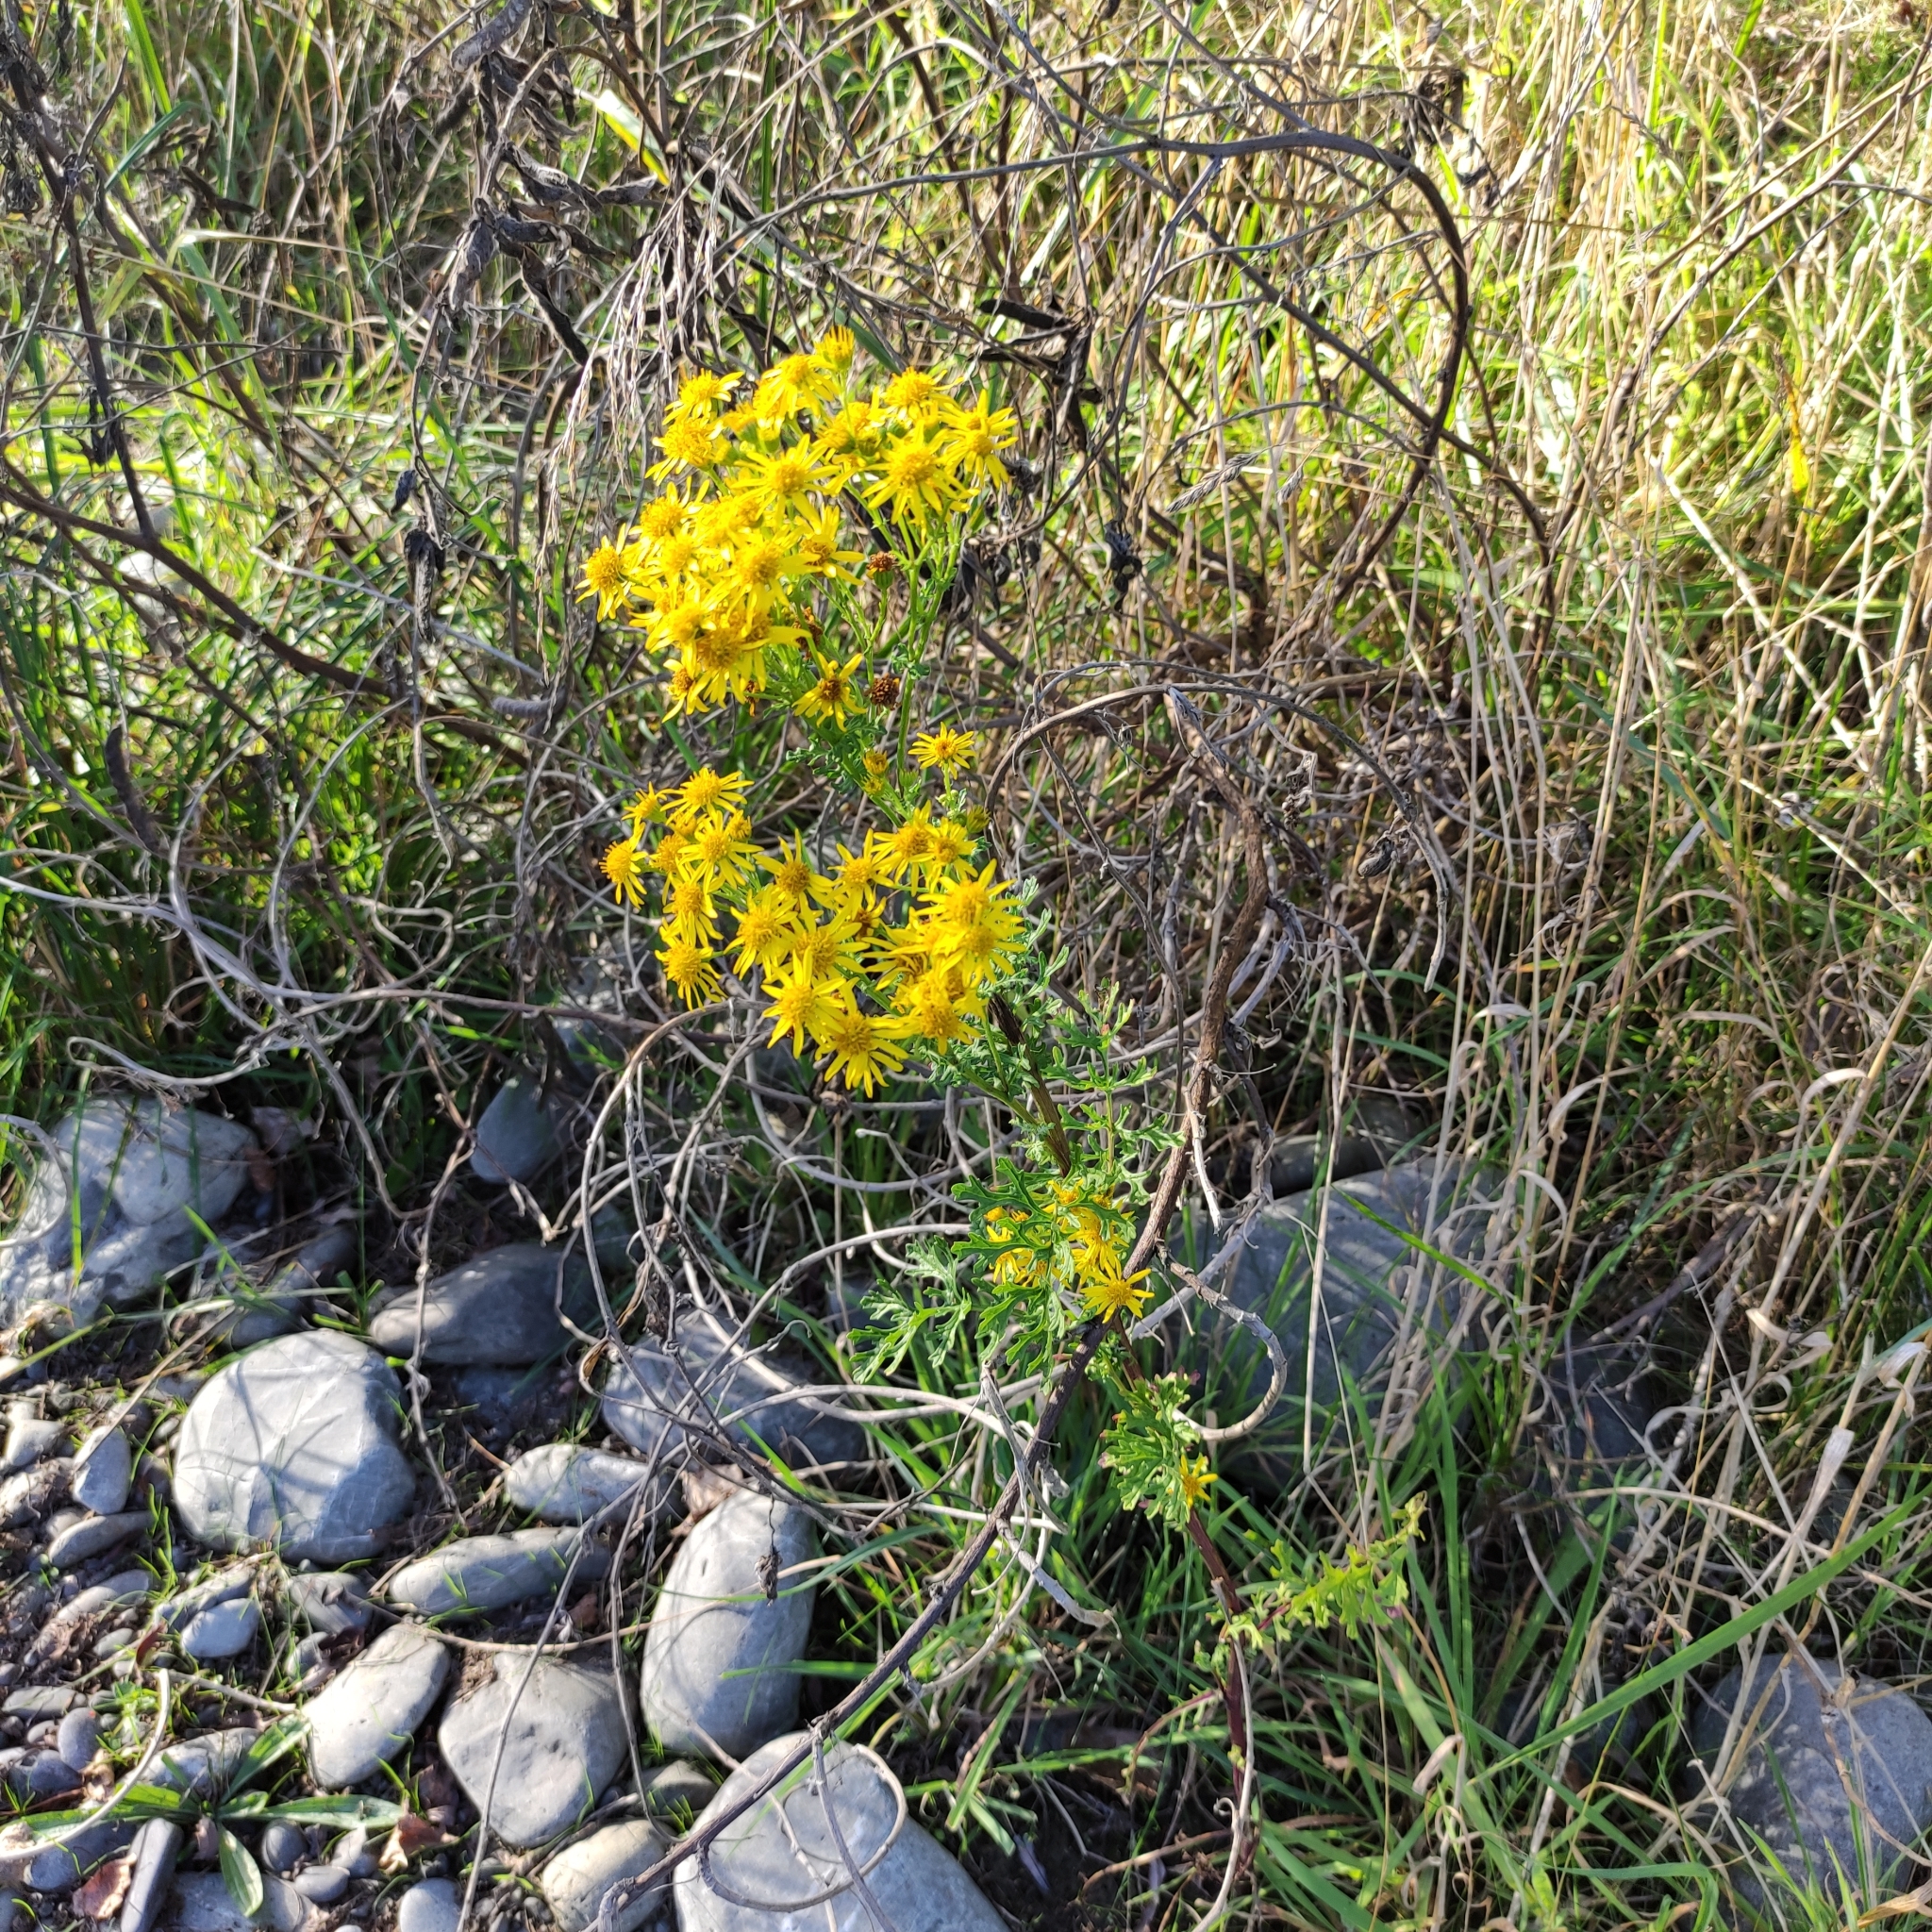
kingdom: Plantae
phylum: Tracheophyta
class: Magnoliopsida
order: Asterales
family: Asteraceae
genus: Jacobaea
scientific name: Jacobaea vulgaris
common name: Stinking willie
